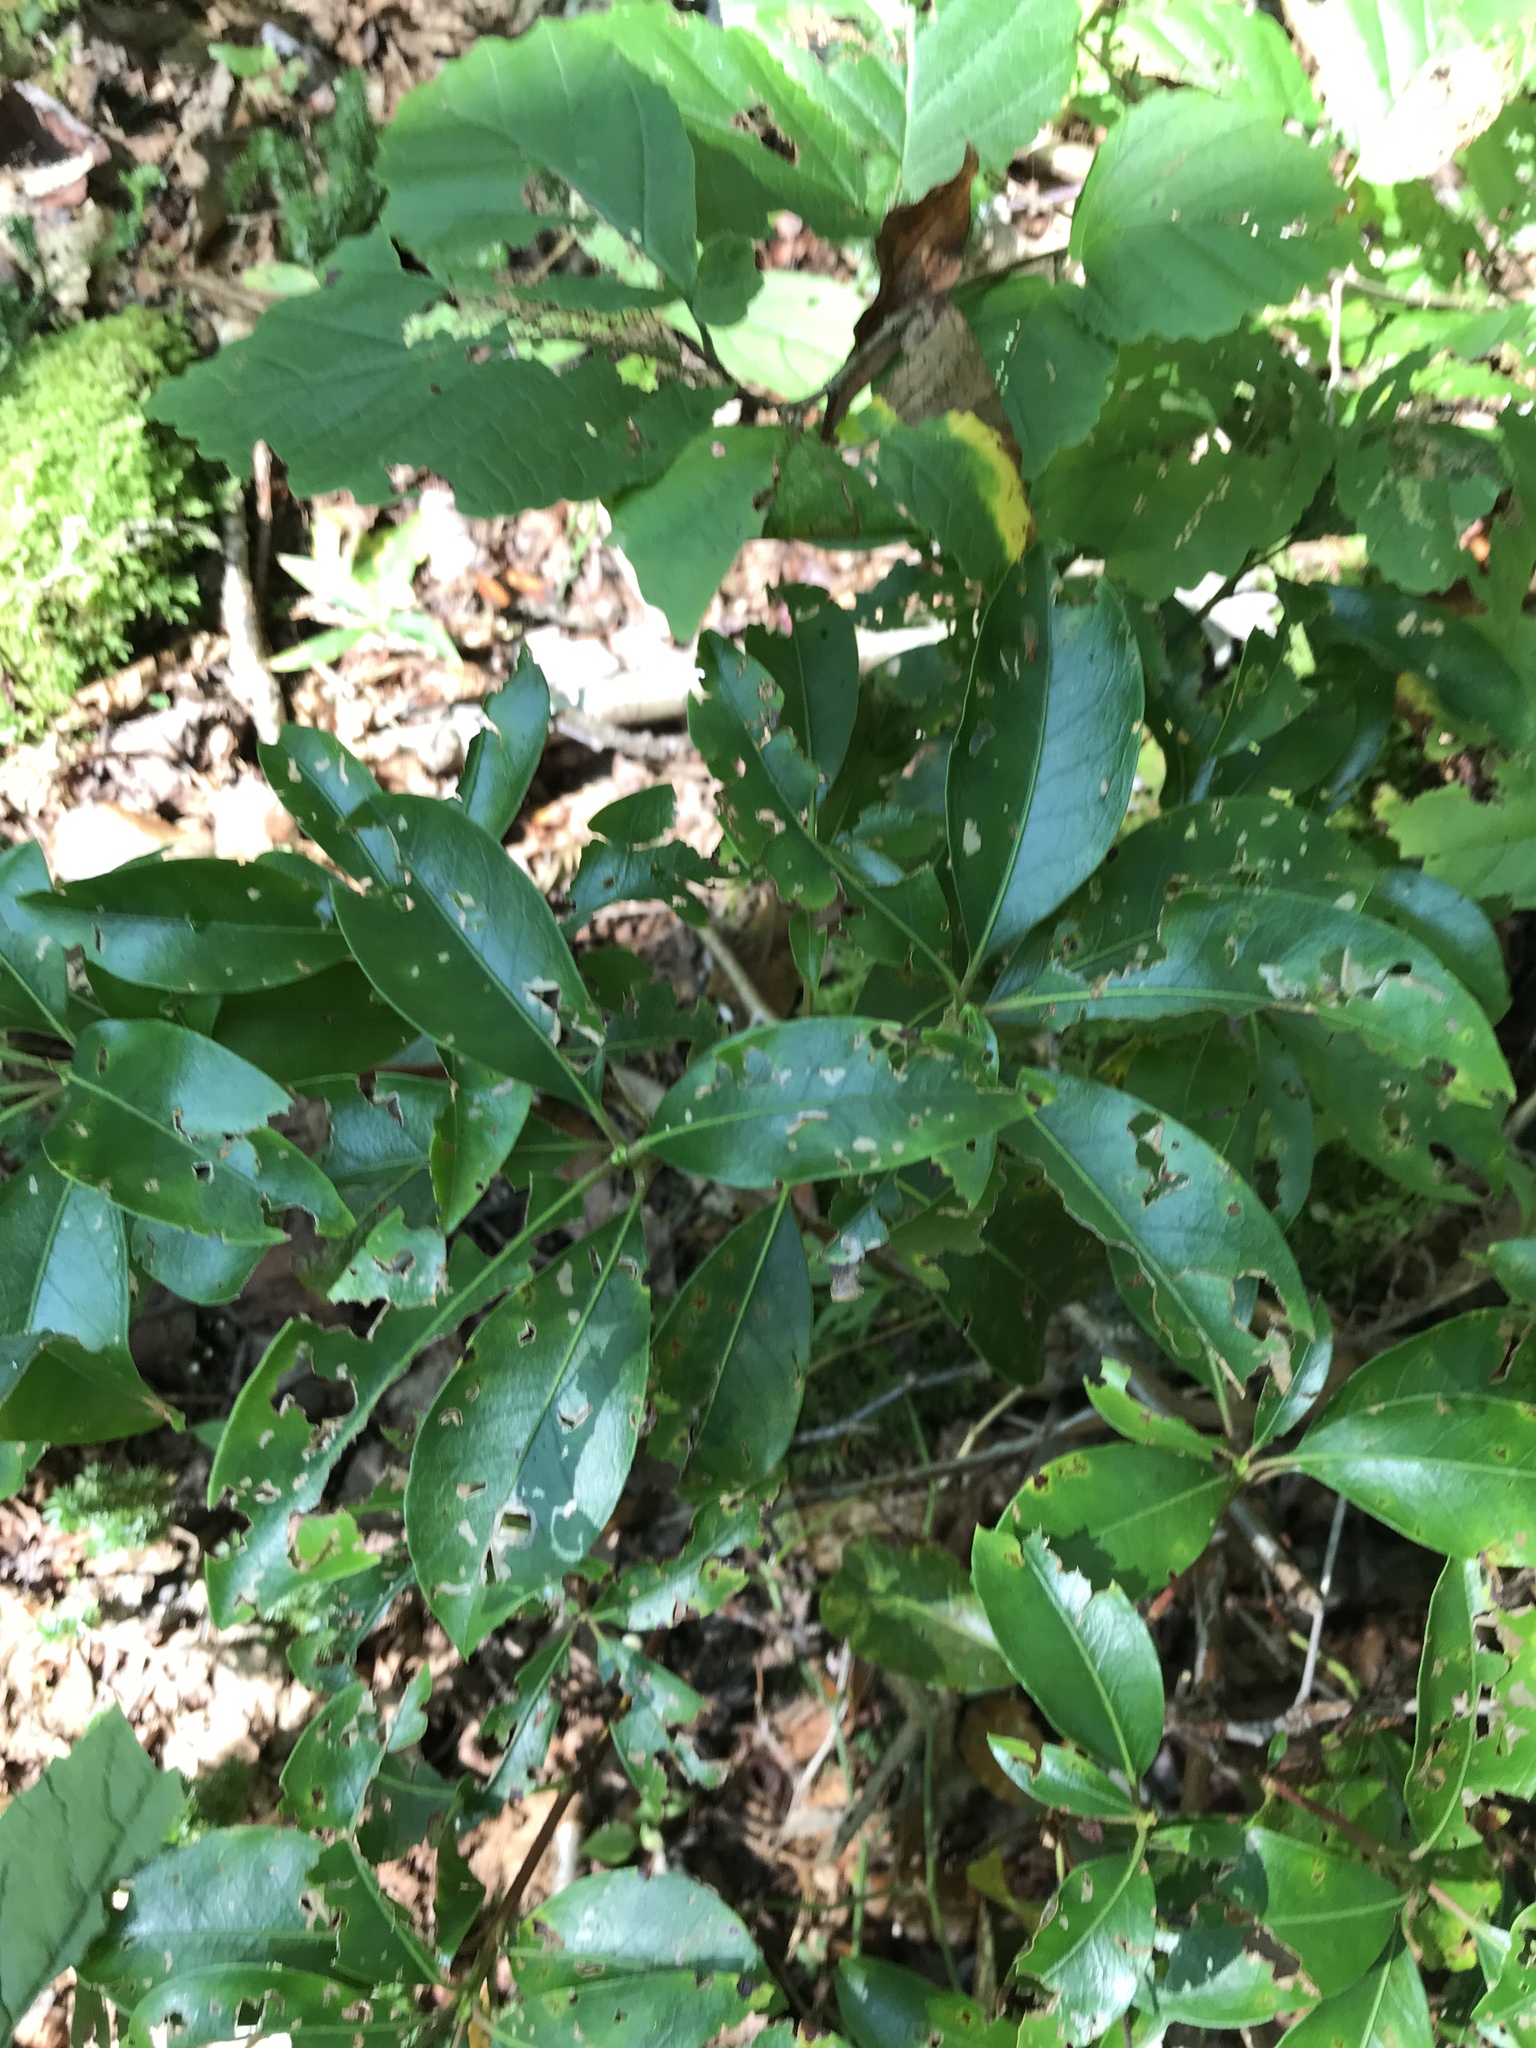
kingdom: Plantae
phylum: Tracheophyta
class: Magnoliopsida
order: Ericales
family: Ericaceae
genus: Kalmia
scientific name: Kalmia latifolia
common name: Mountain-laurel
